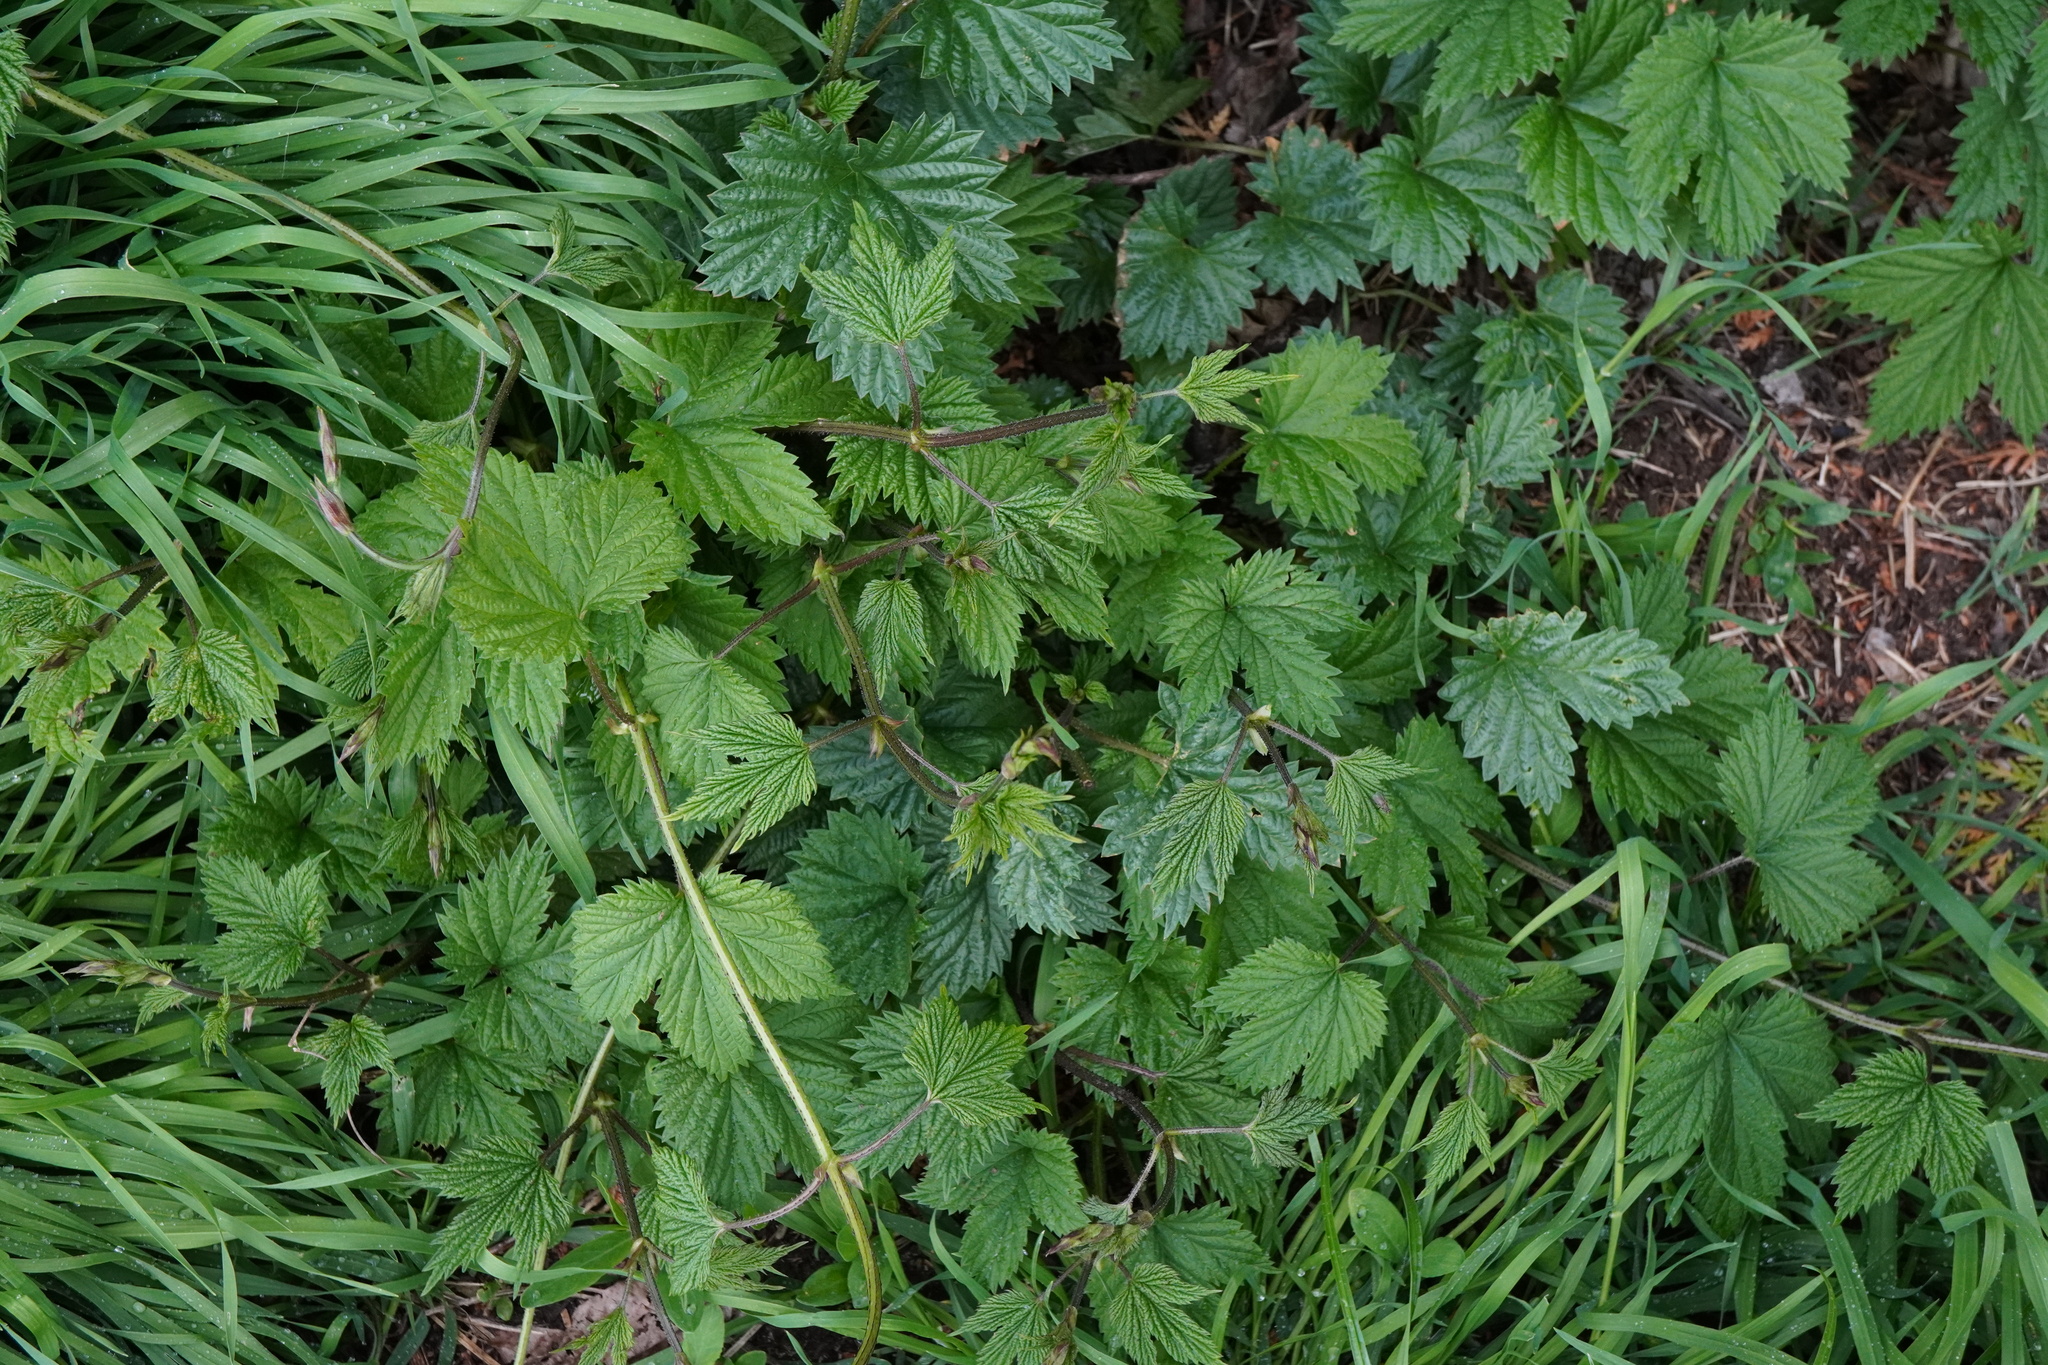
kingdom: Plantae
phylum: Tracheophyta
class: Magnoliopsida
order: Rosales
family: Cannabaceae
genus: Humulus
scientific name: Humulus lupulus
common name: Hop
